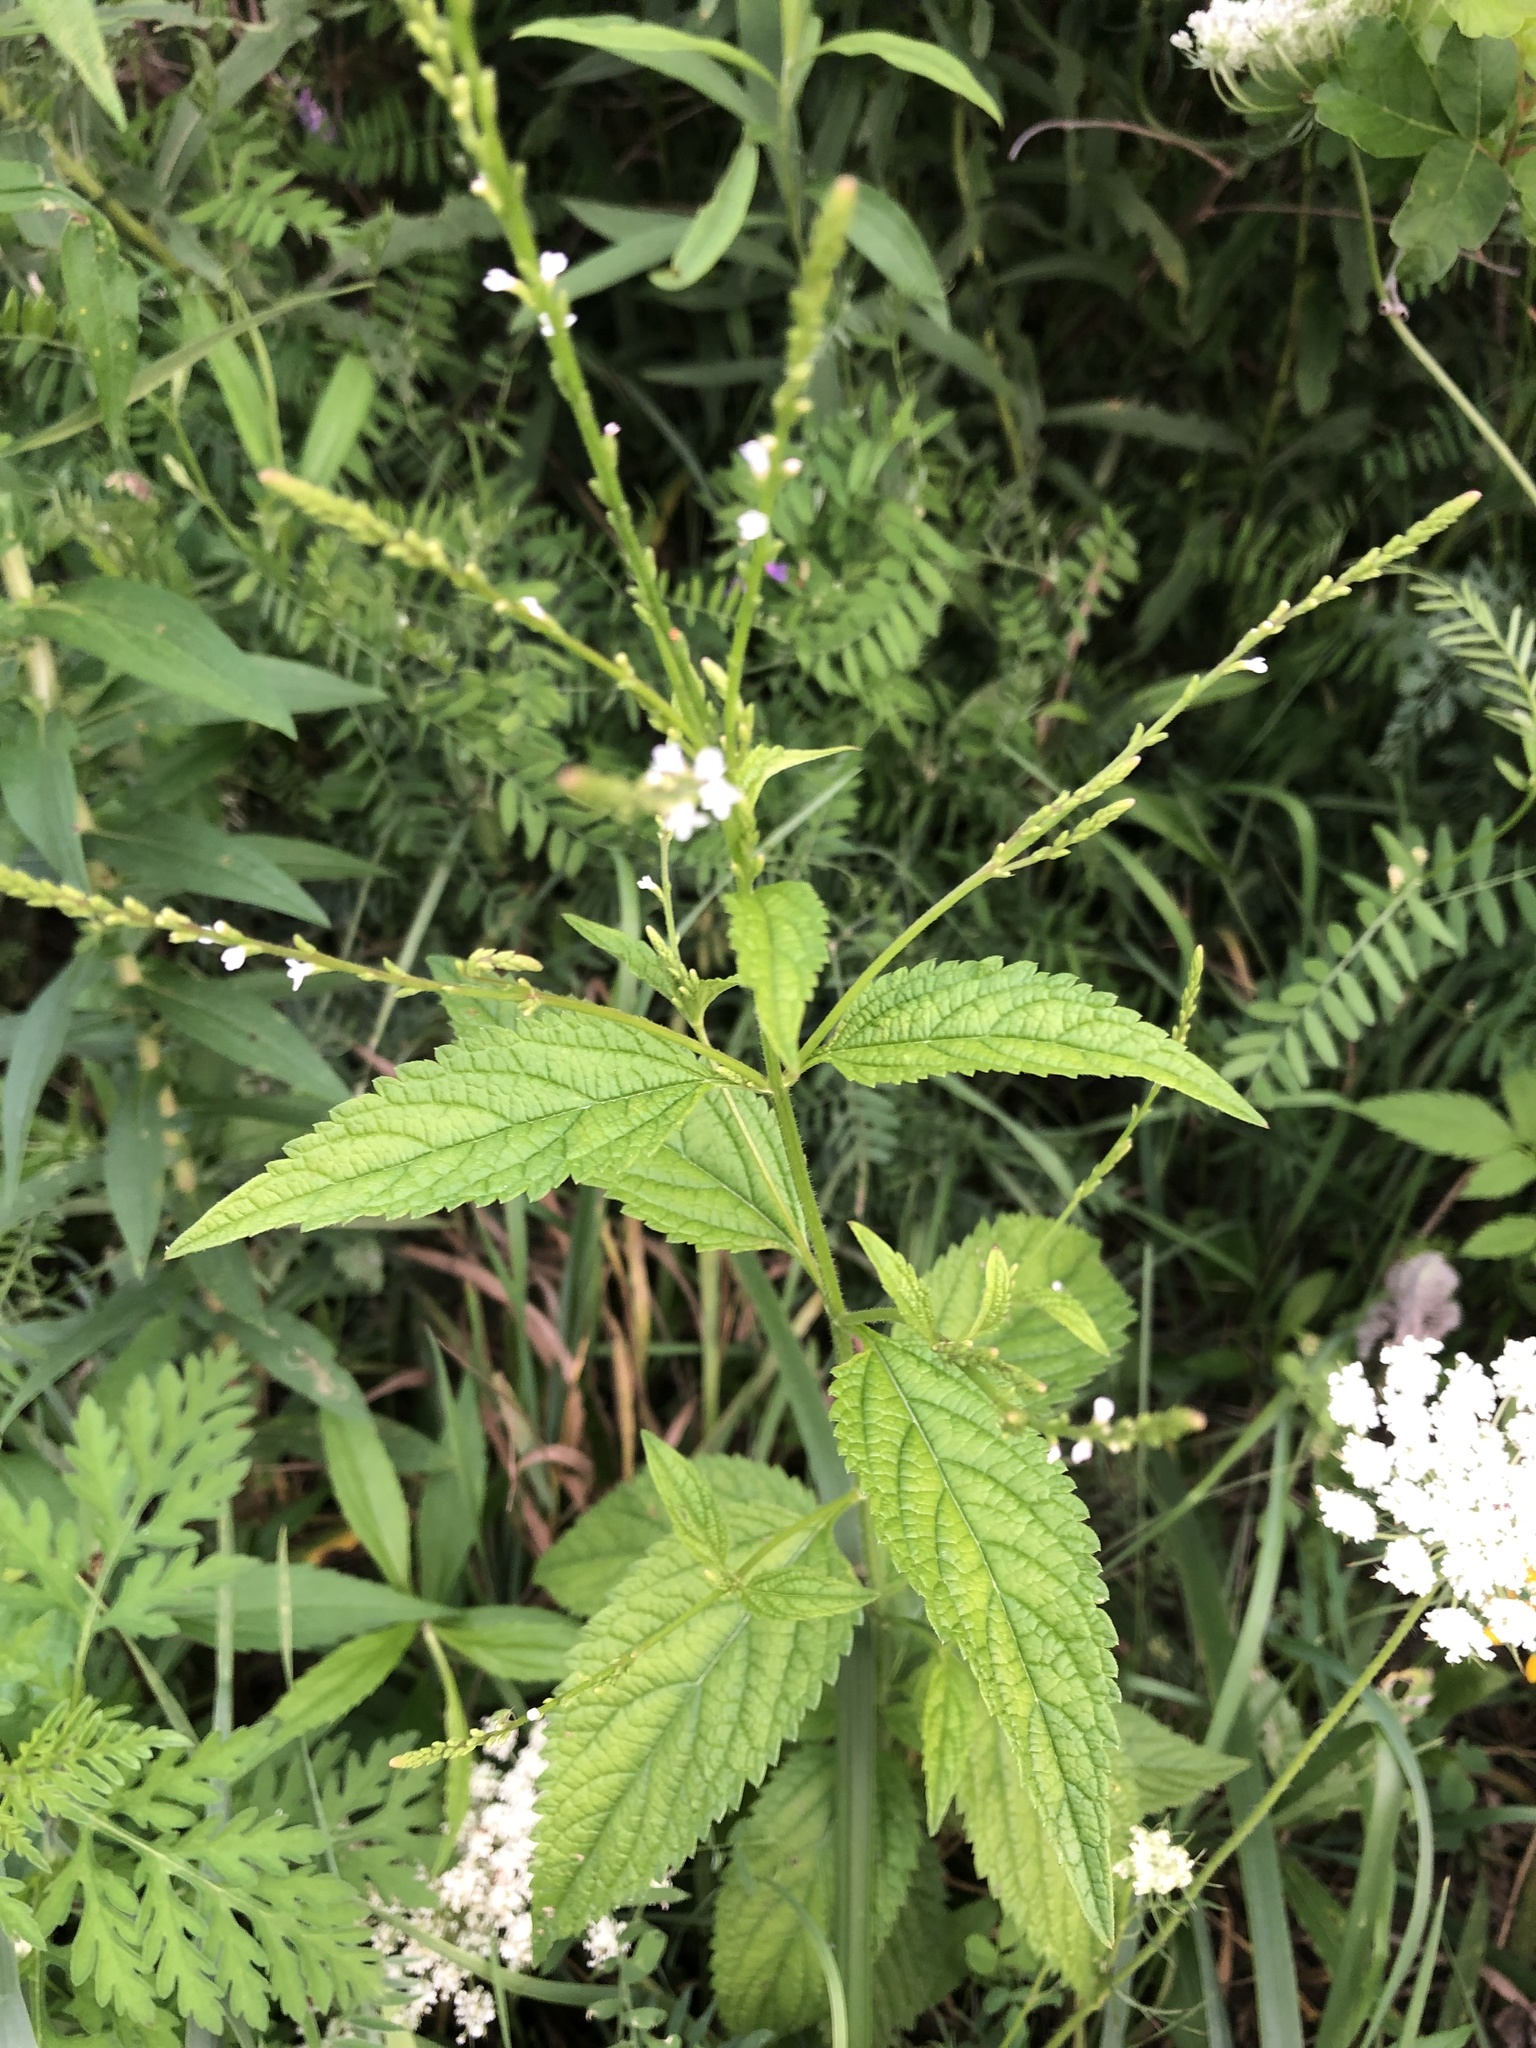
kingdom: Plantae
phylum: Tracheophyta
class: Magnoliopsida
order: Lamiales
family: Verbenaceae
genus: Verbena
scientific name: Verbena urticifolia
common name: Nettle-leaved vervain
